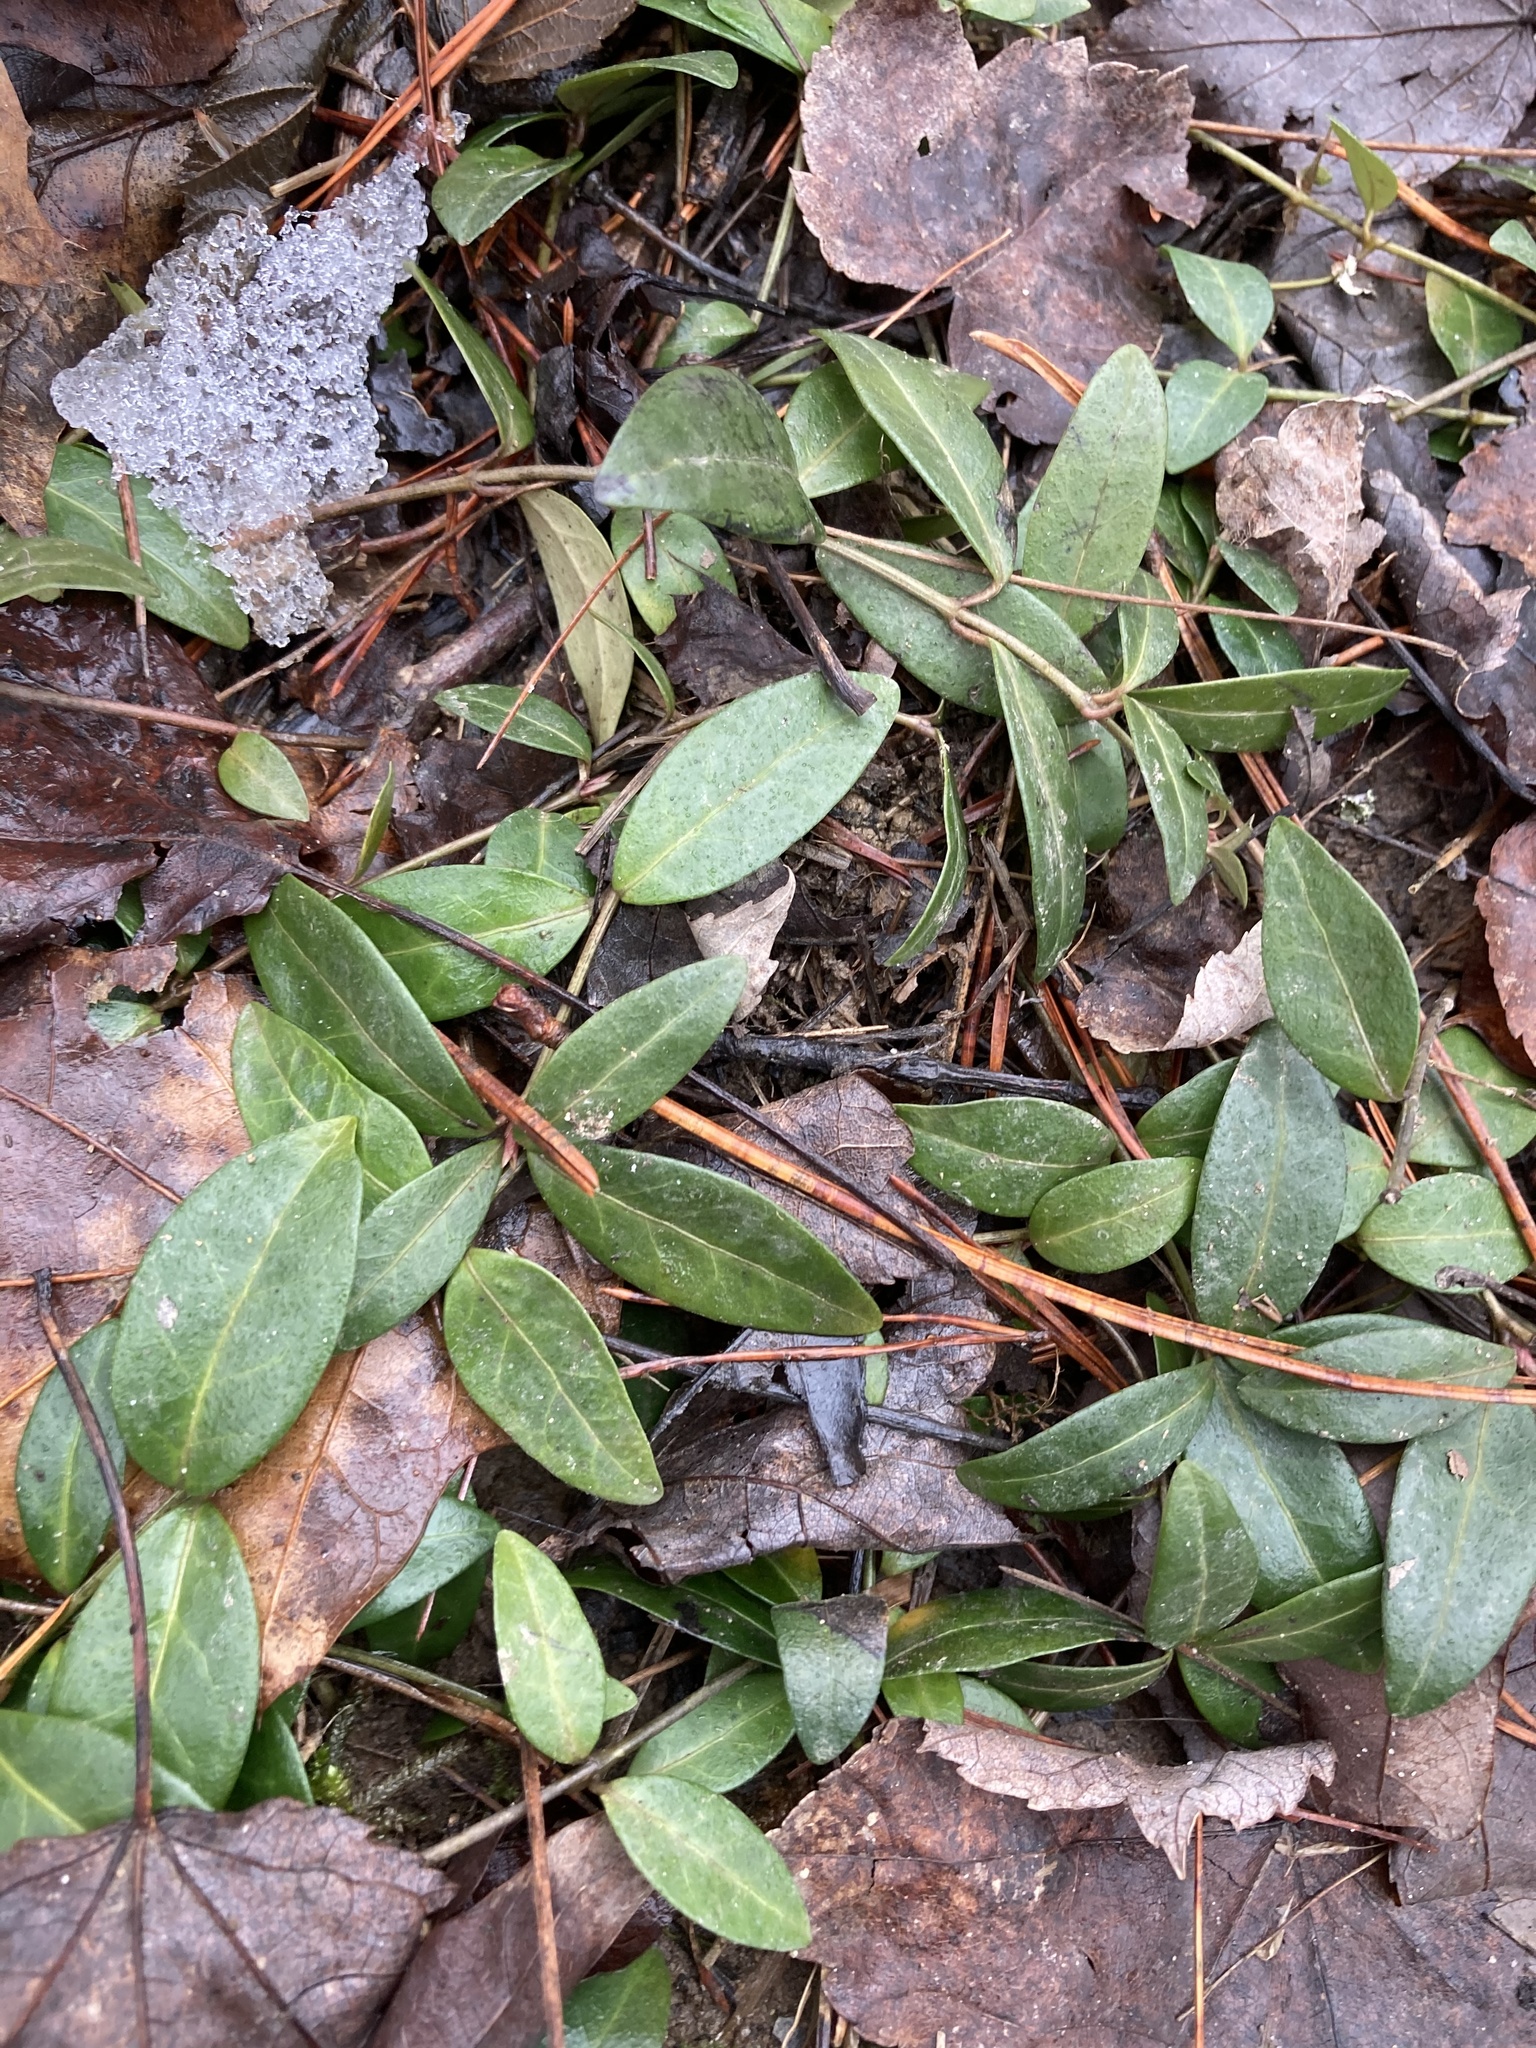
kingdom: Plantae
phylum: Tracheophyta
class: Magnoliopsida
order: Gentianales
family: Apocynaceae
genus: Vinca
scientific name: Vinca minor
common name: Lesser periwinkle
